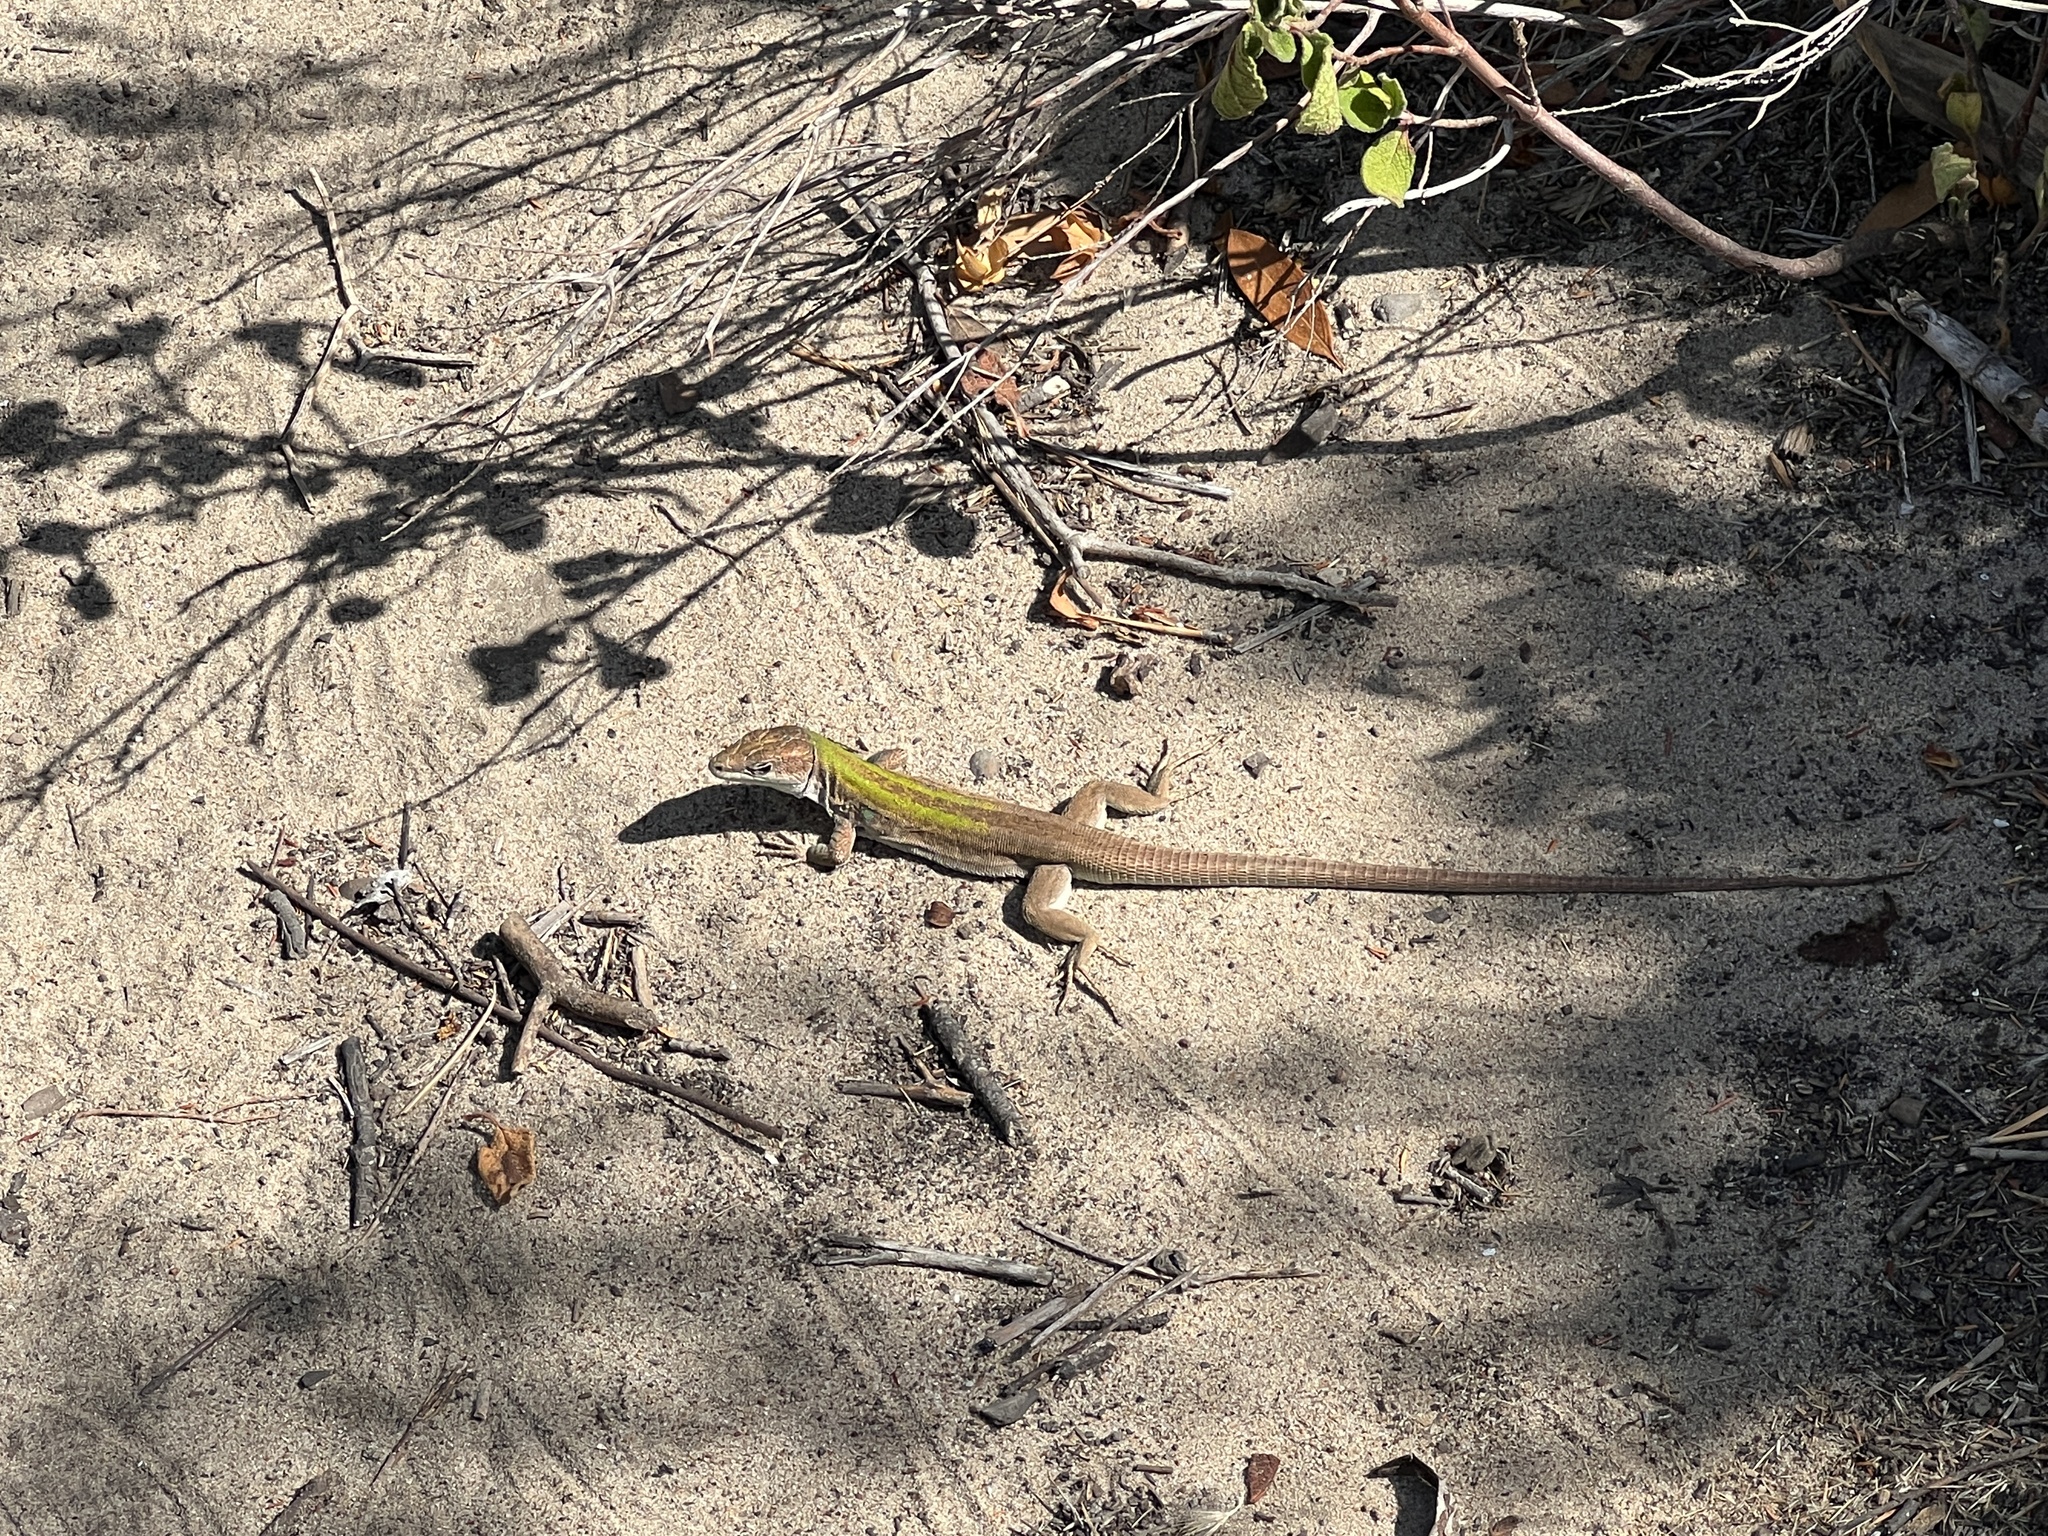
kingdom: Animalia
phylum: Chordata
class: Squamata
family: Lacertidae
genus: Podarcis
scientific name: Podarcis siculus
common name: Italian wall lizard
